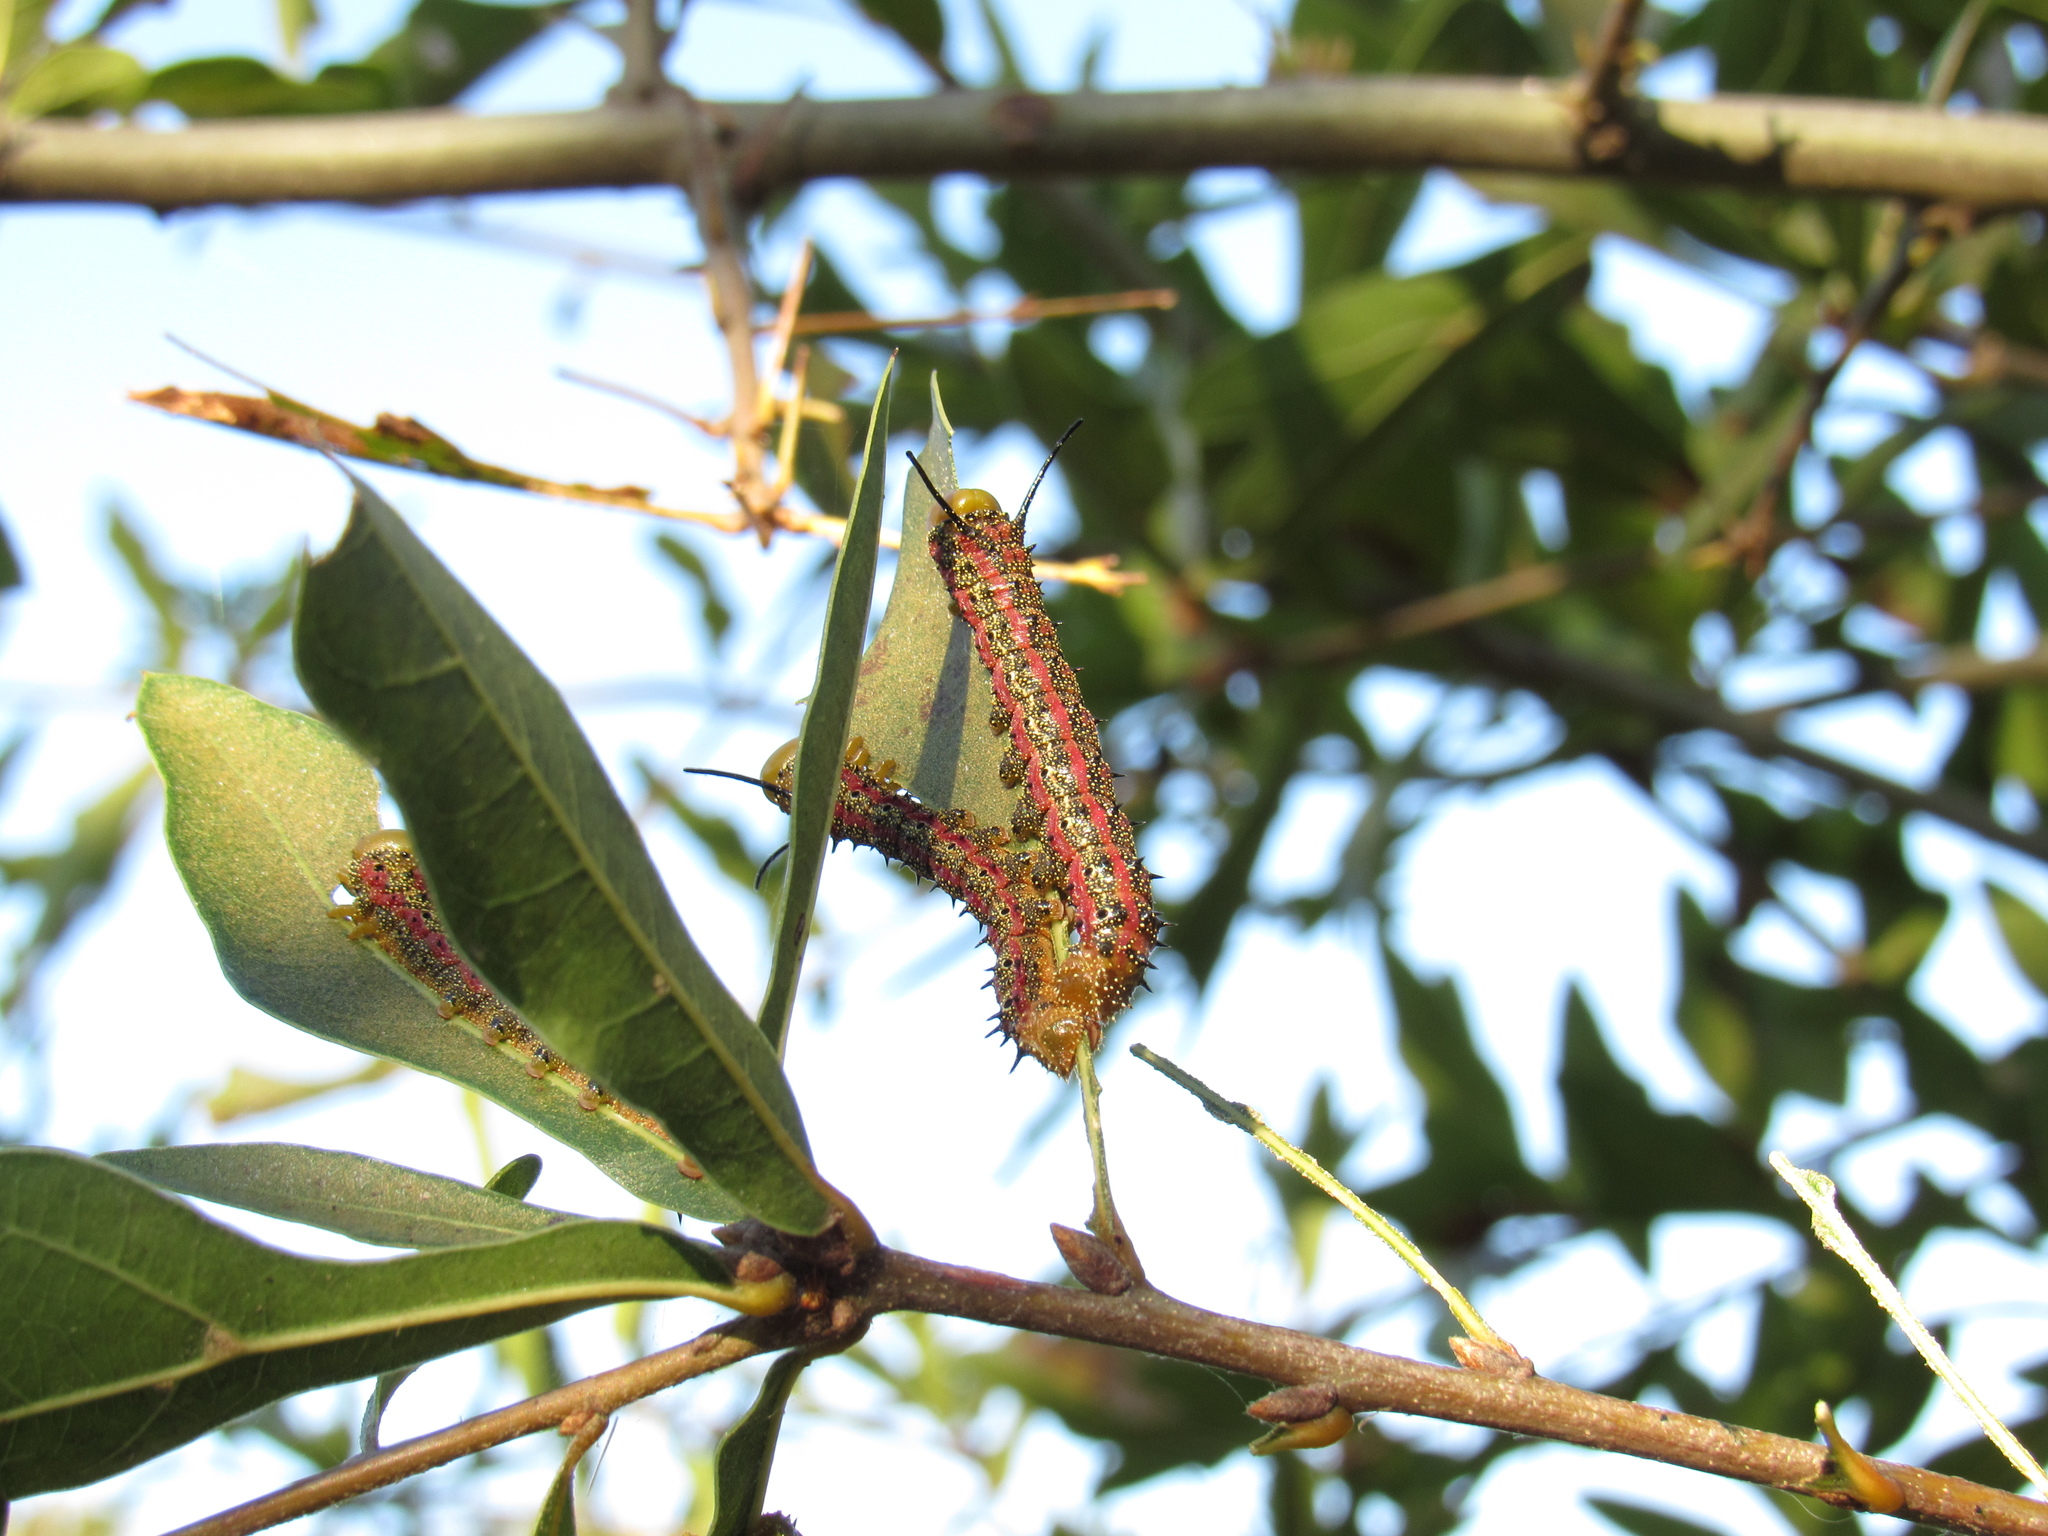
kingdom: Animalia
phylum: Arthropoda
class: Insecta
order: Lepidoptera
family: Saturniidae
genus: Anisota
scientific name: Anisota virginiensis
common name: Pink striped oakworm moth
